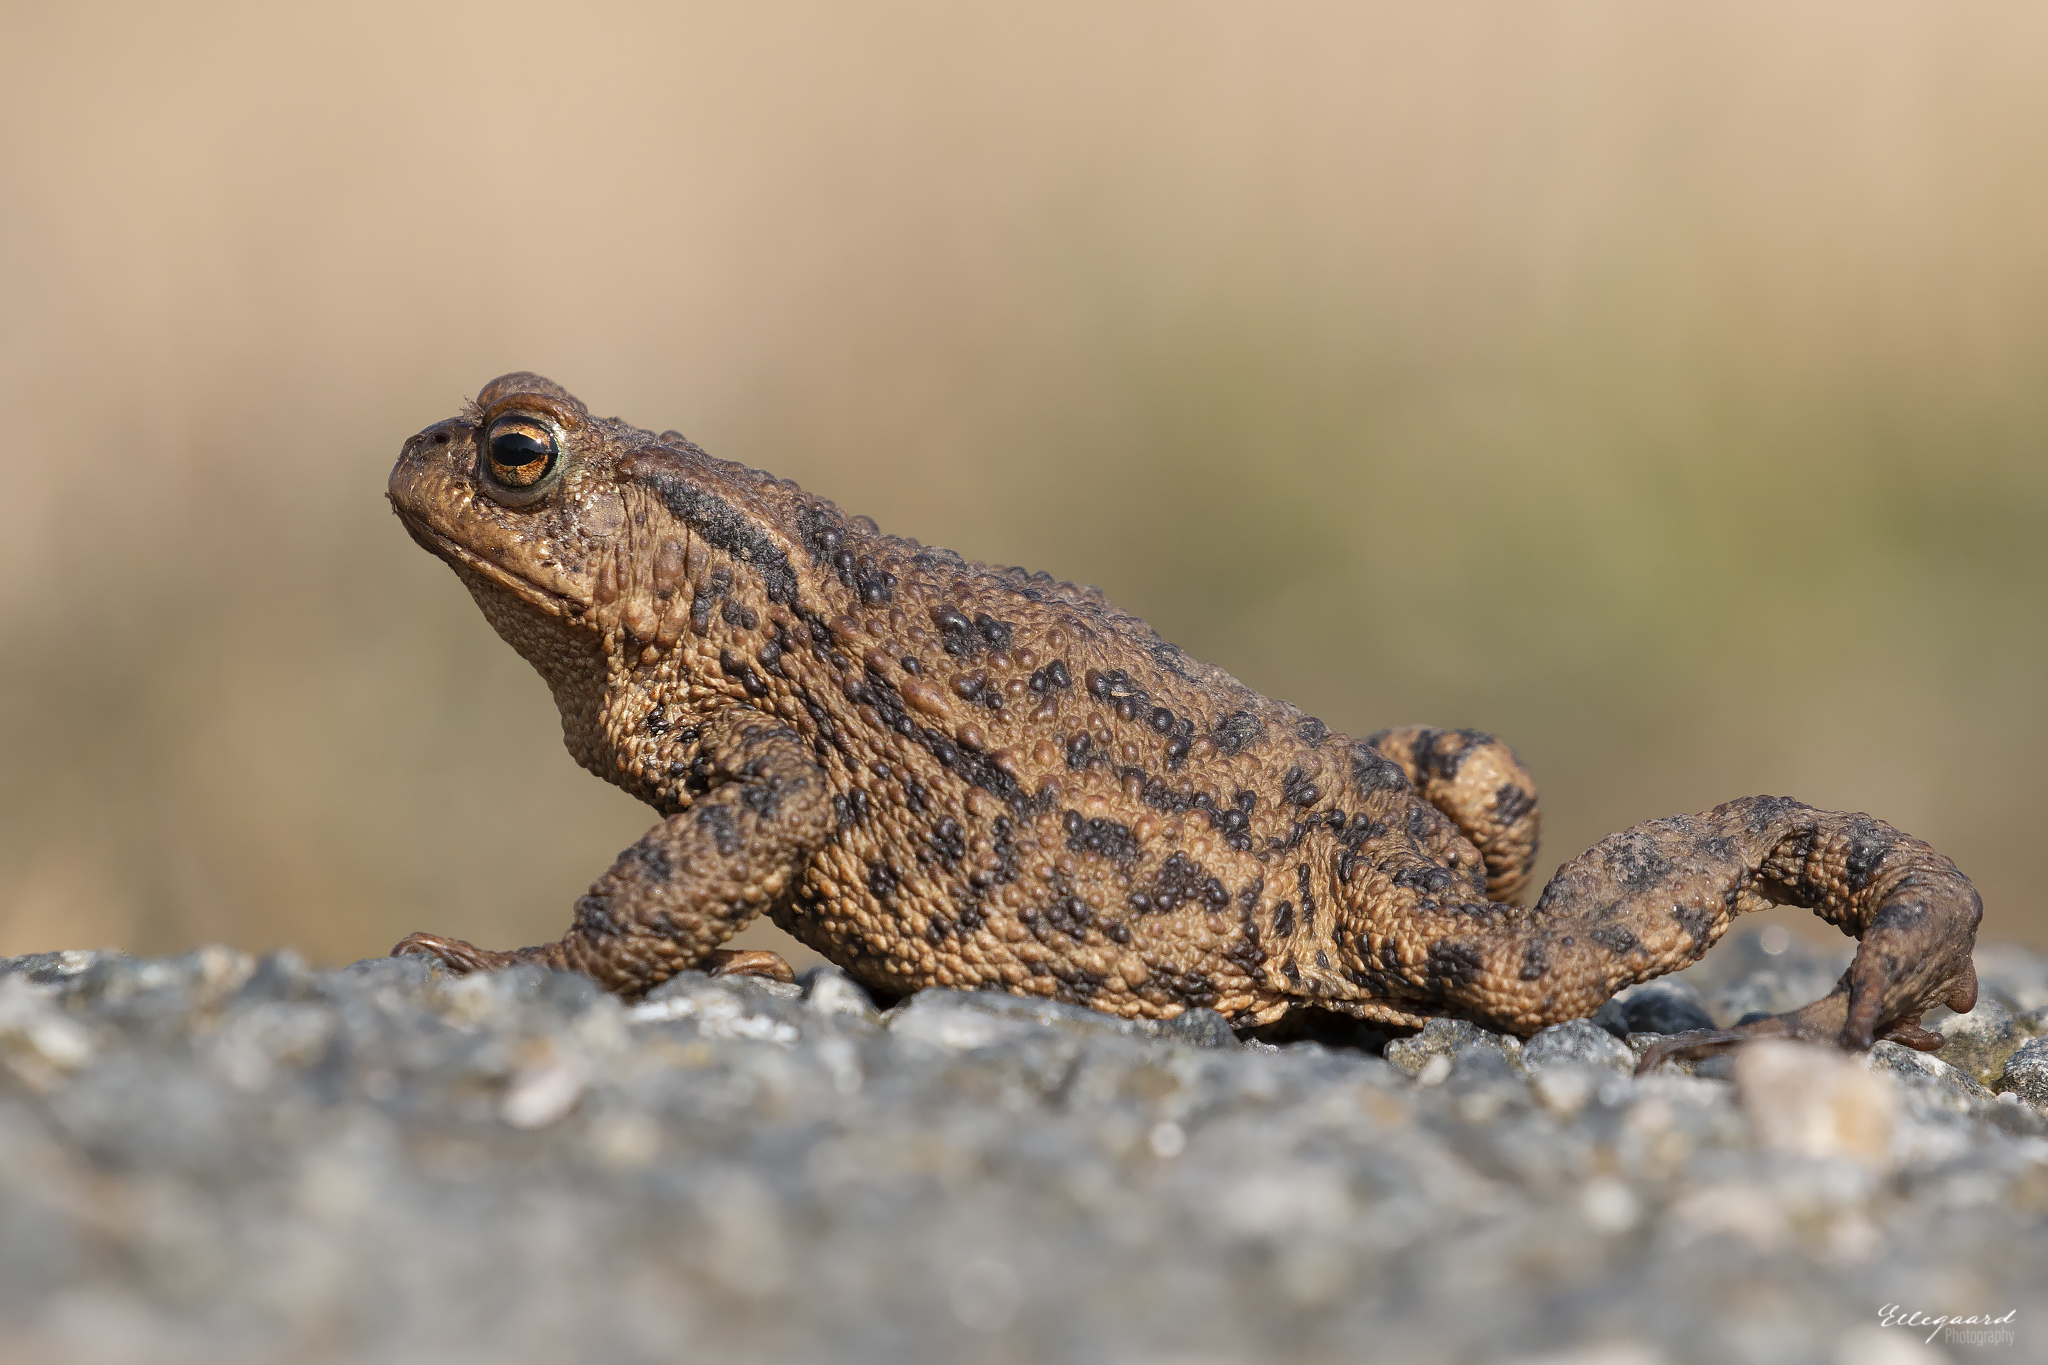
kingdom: Animalia
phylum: Chordata
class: Amphibia
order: Anura
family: Bufonidae
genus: Bufo
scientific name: Bufo bufo
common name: Common toad
